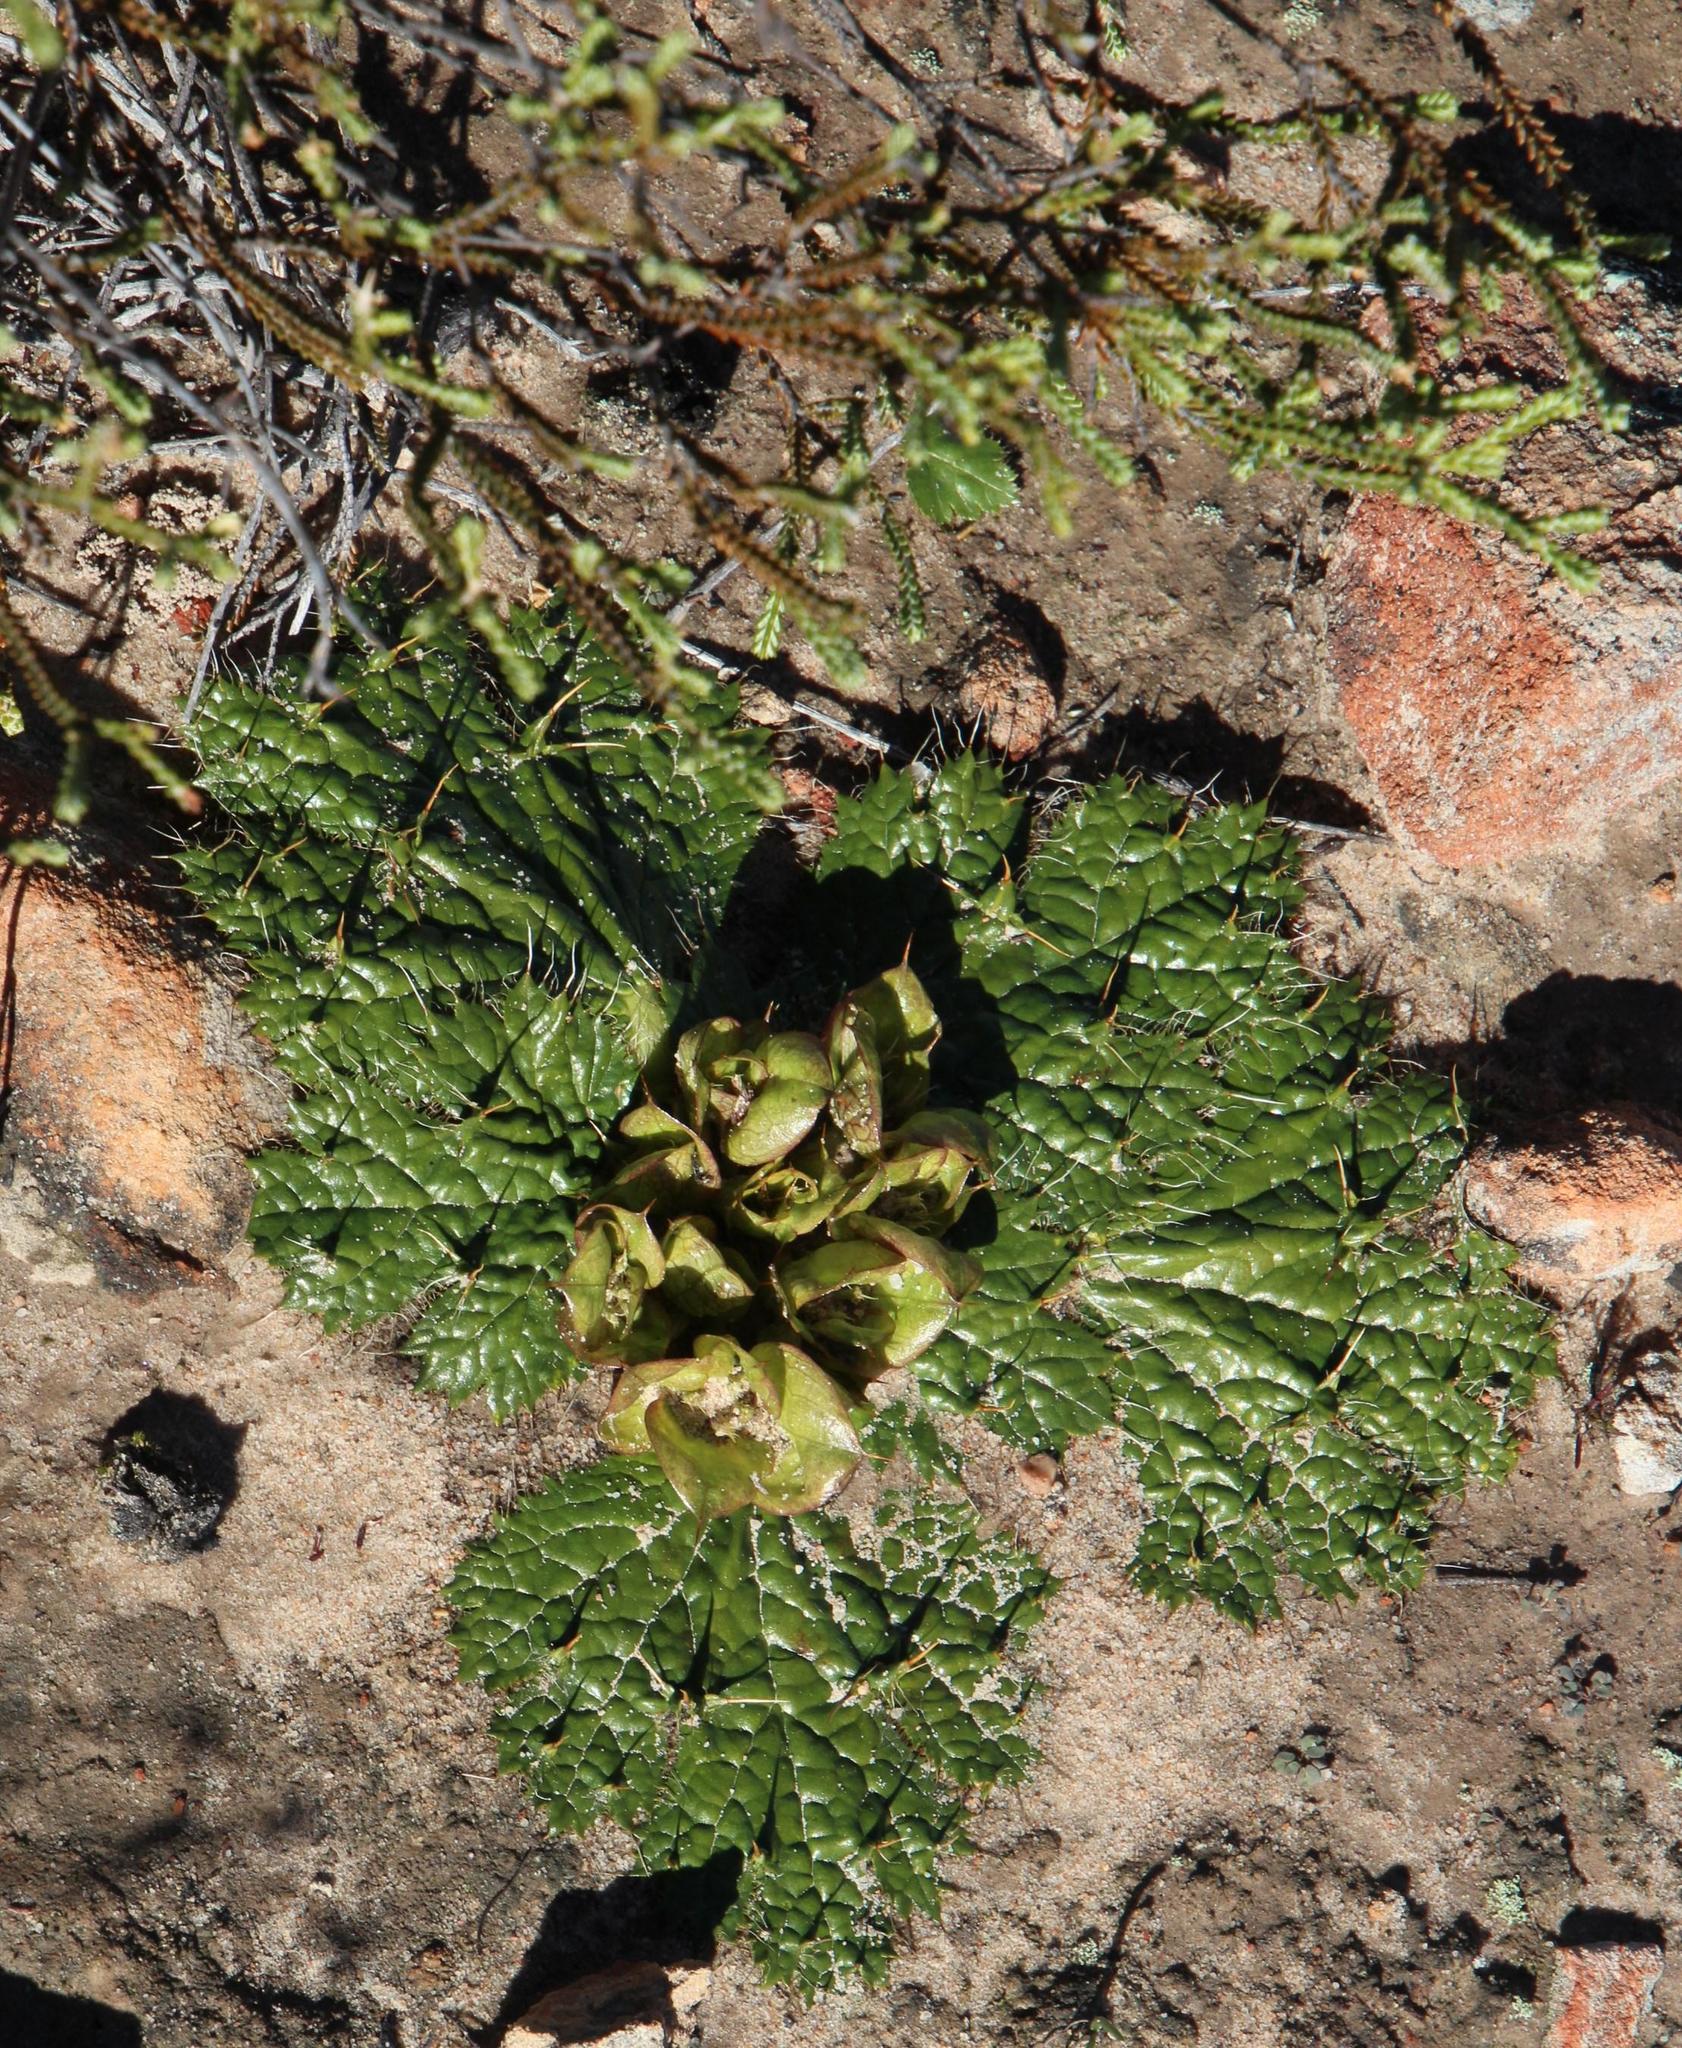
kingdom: Plantae
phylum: Tracheophyta
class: Magnoliopsida
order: Apiales
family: Apiaceae
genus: Arctopus
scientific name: Arctopus monacanthus
